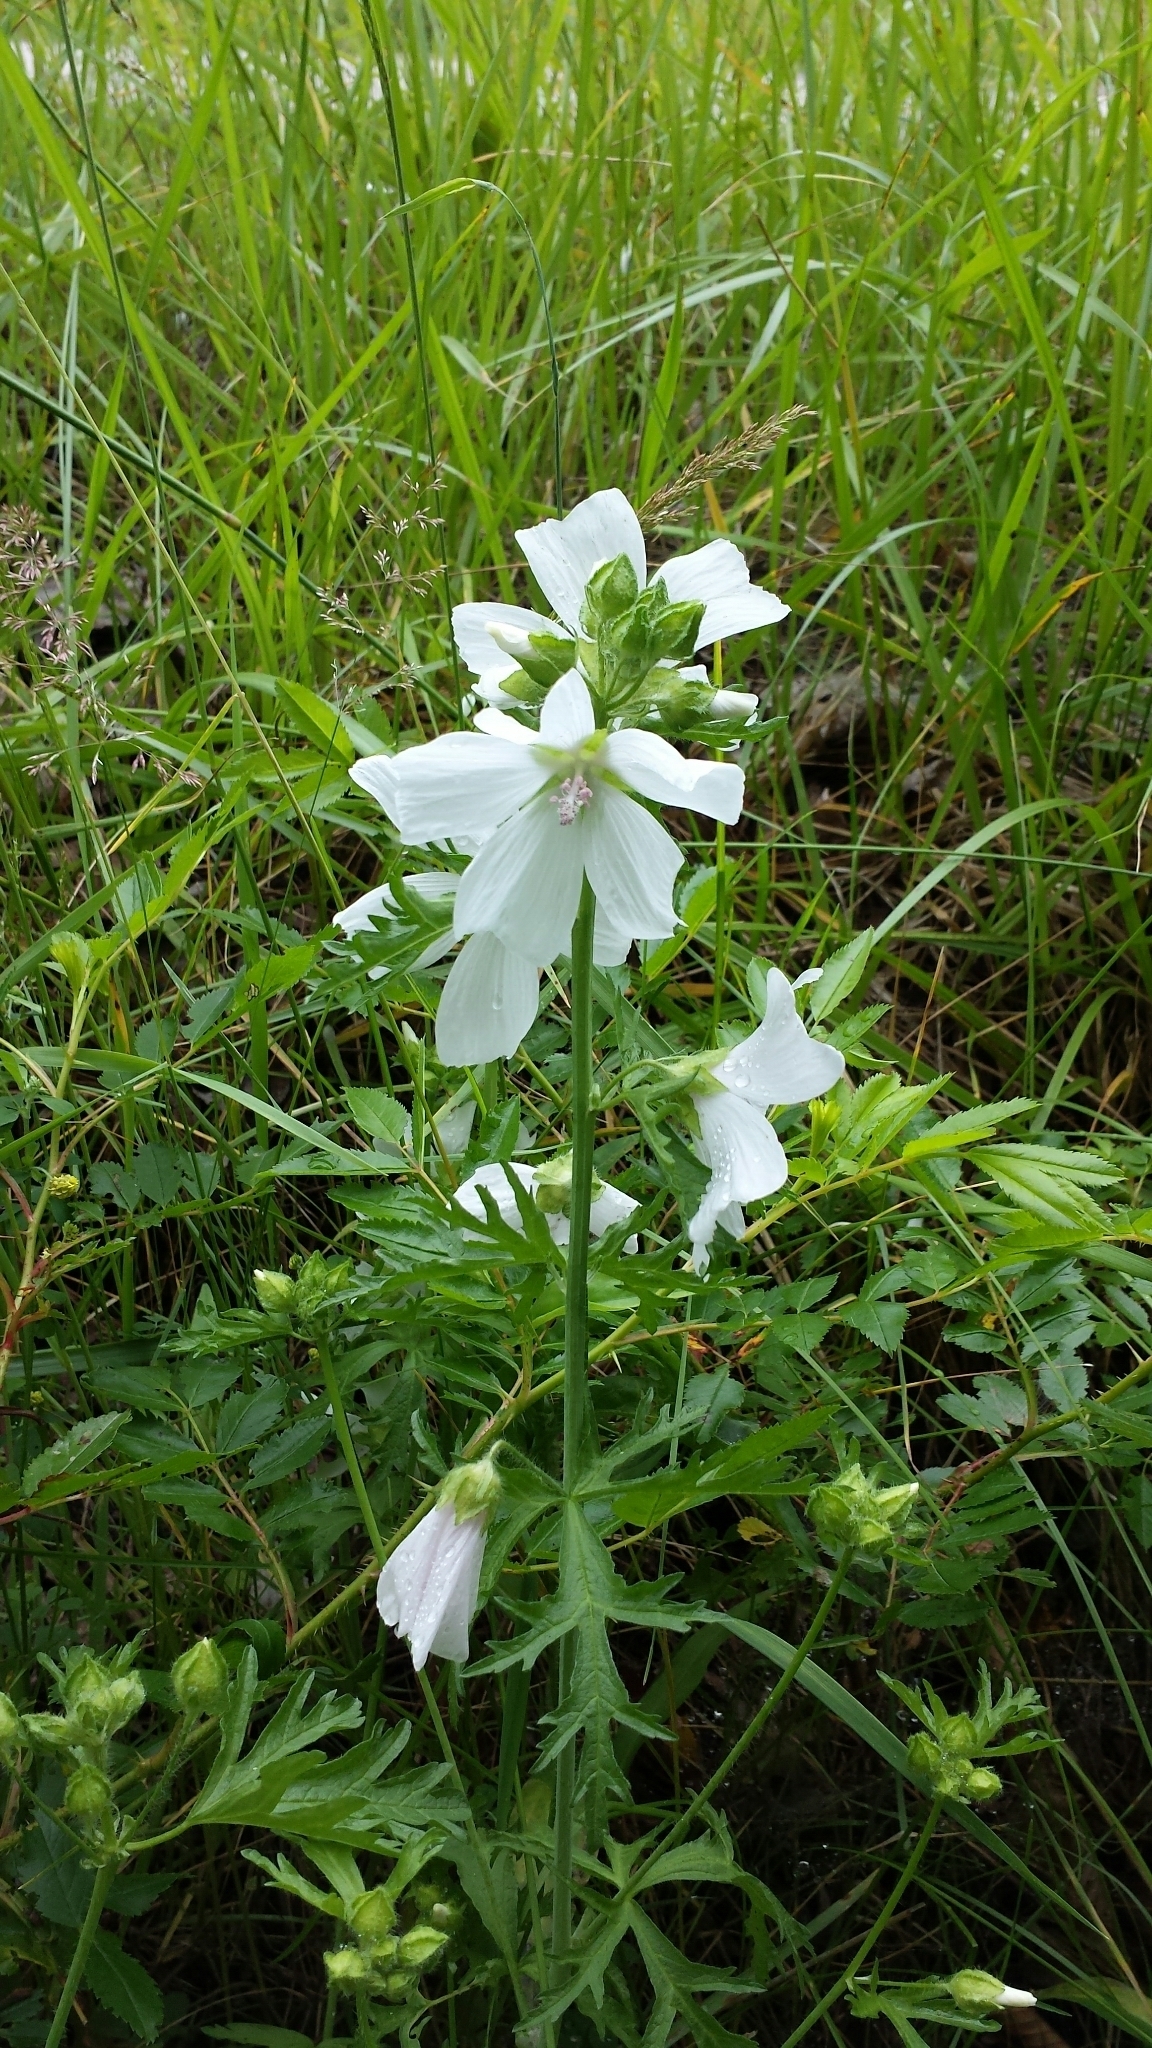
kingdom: Plantae
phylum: Tracheophyta
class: Magnoliopsida
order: Malvales
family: Malvaceae
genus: Malva
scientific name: Malva moschata
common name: Musk mallow
